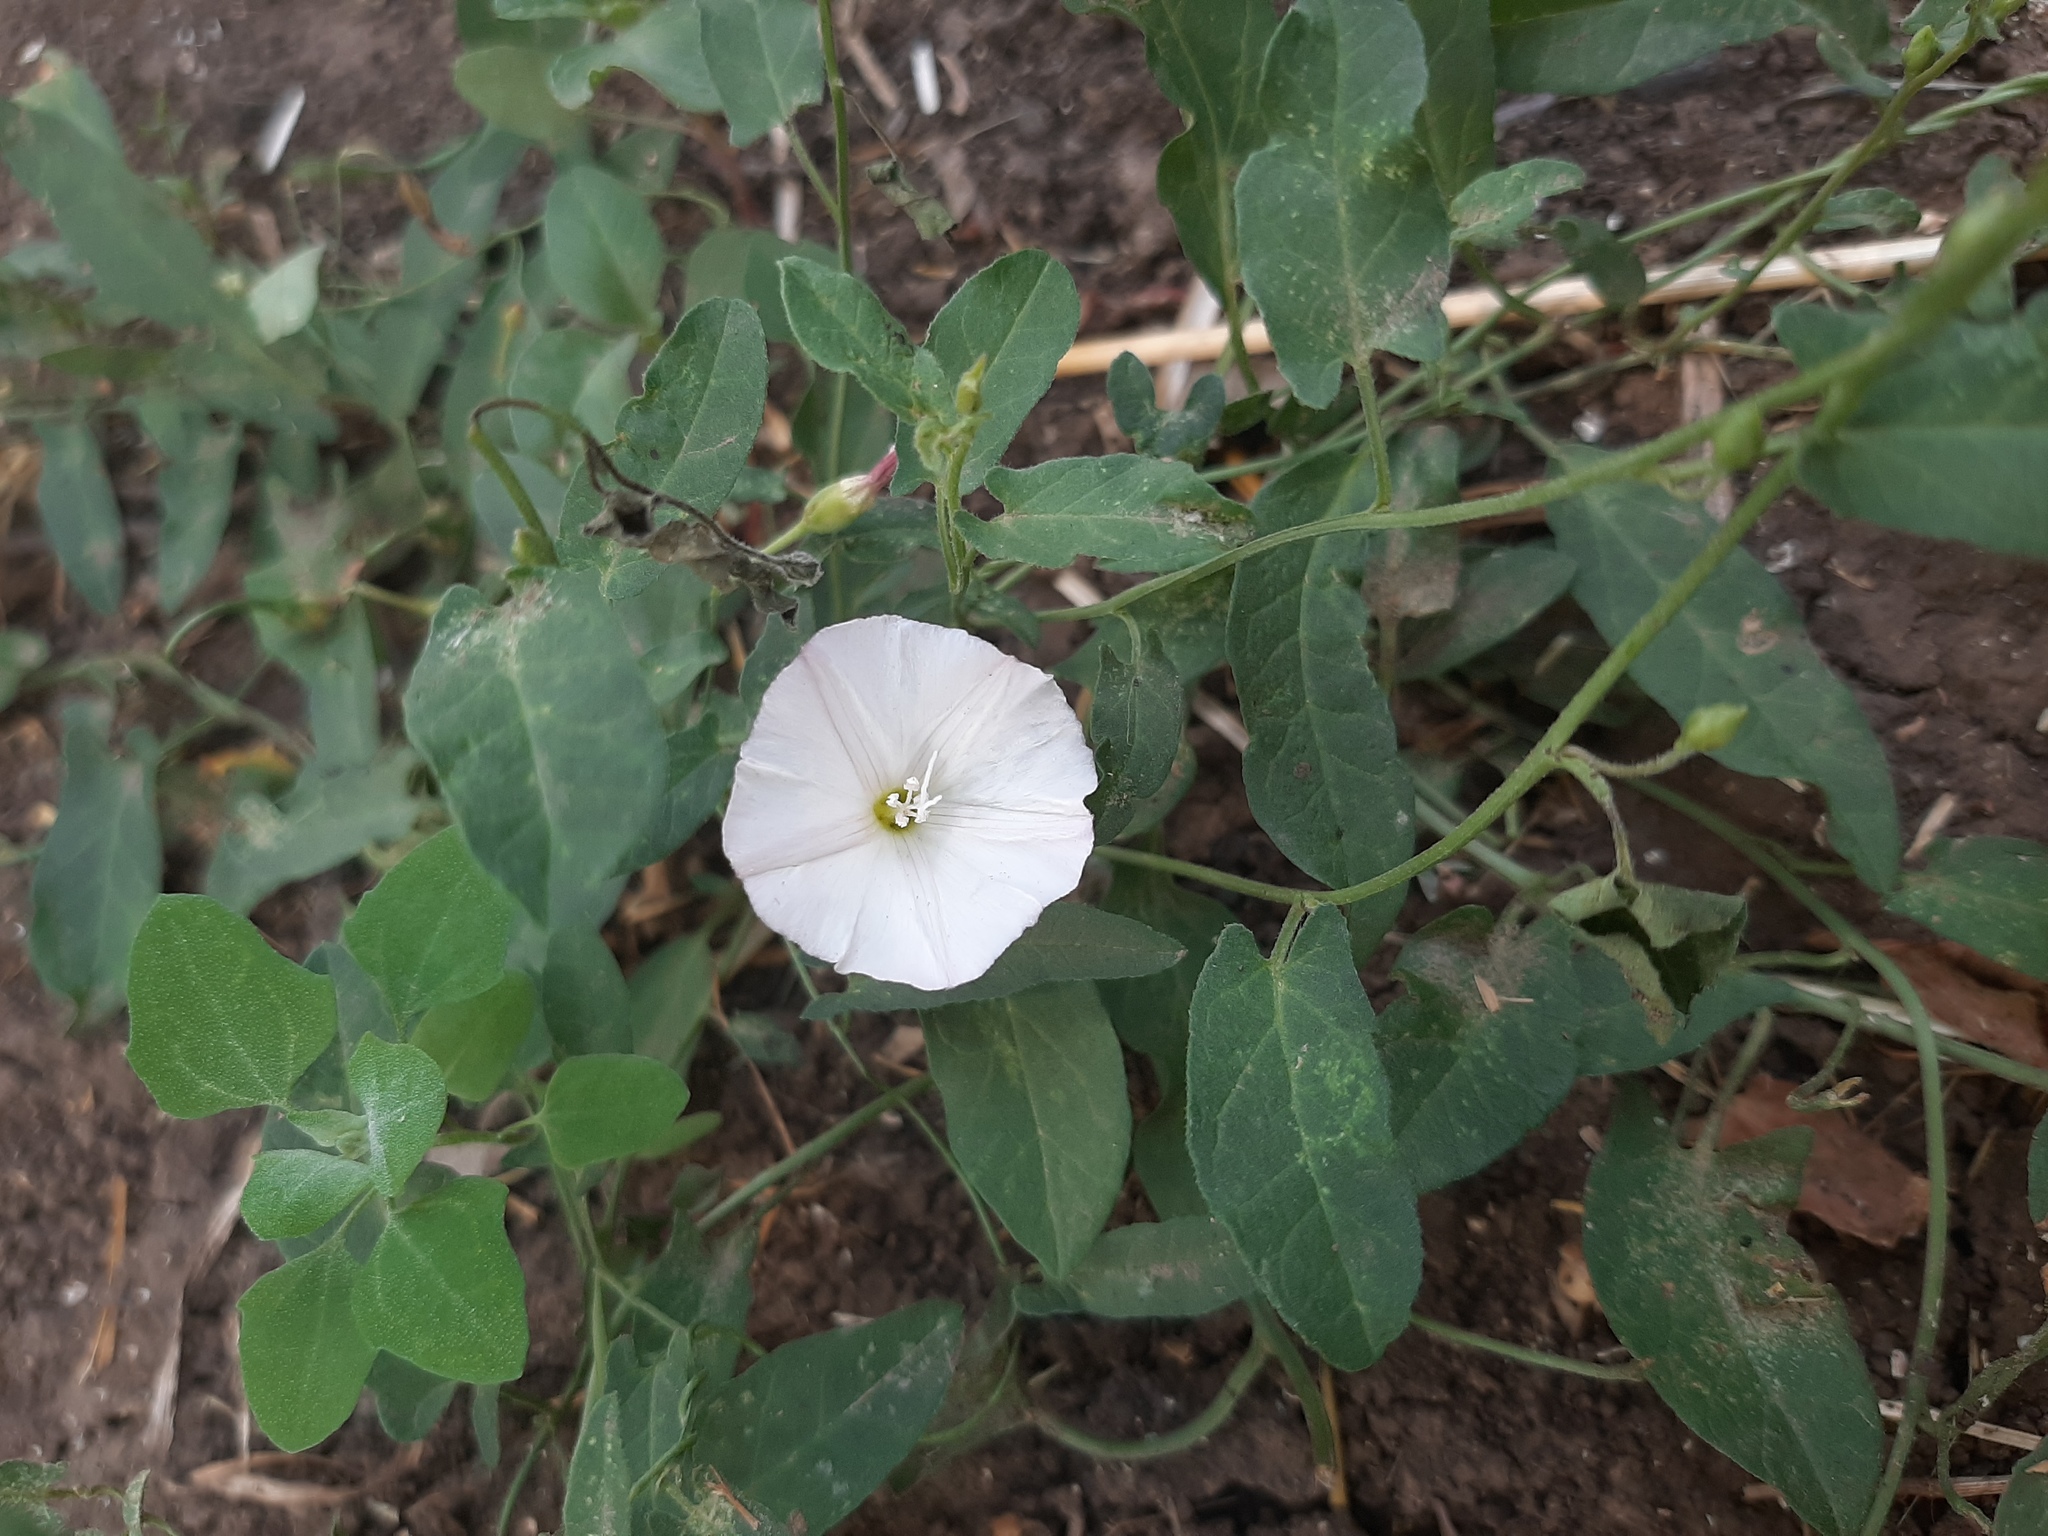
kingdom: Plantae
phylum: Tracheophyta
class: Magnoliopsida
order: Solanales
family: Convolvulaceae
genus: Convolvulus
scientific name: Convolvulus arvensis
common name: Field bindweed
